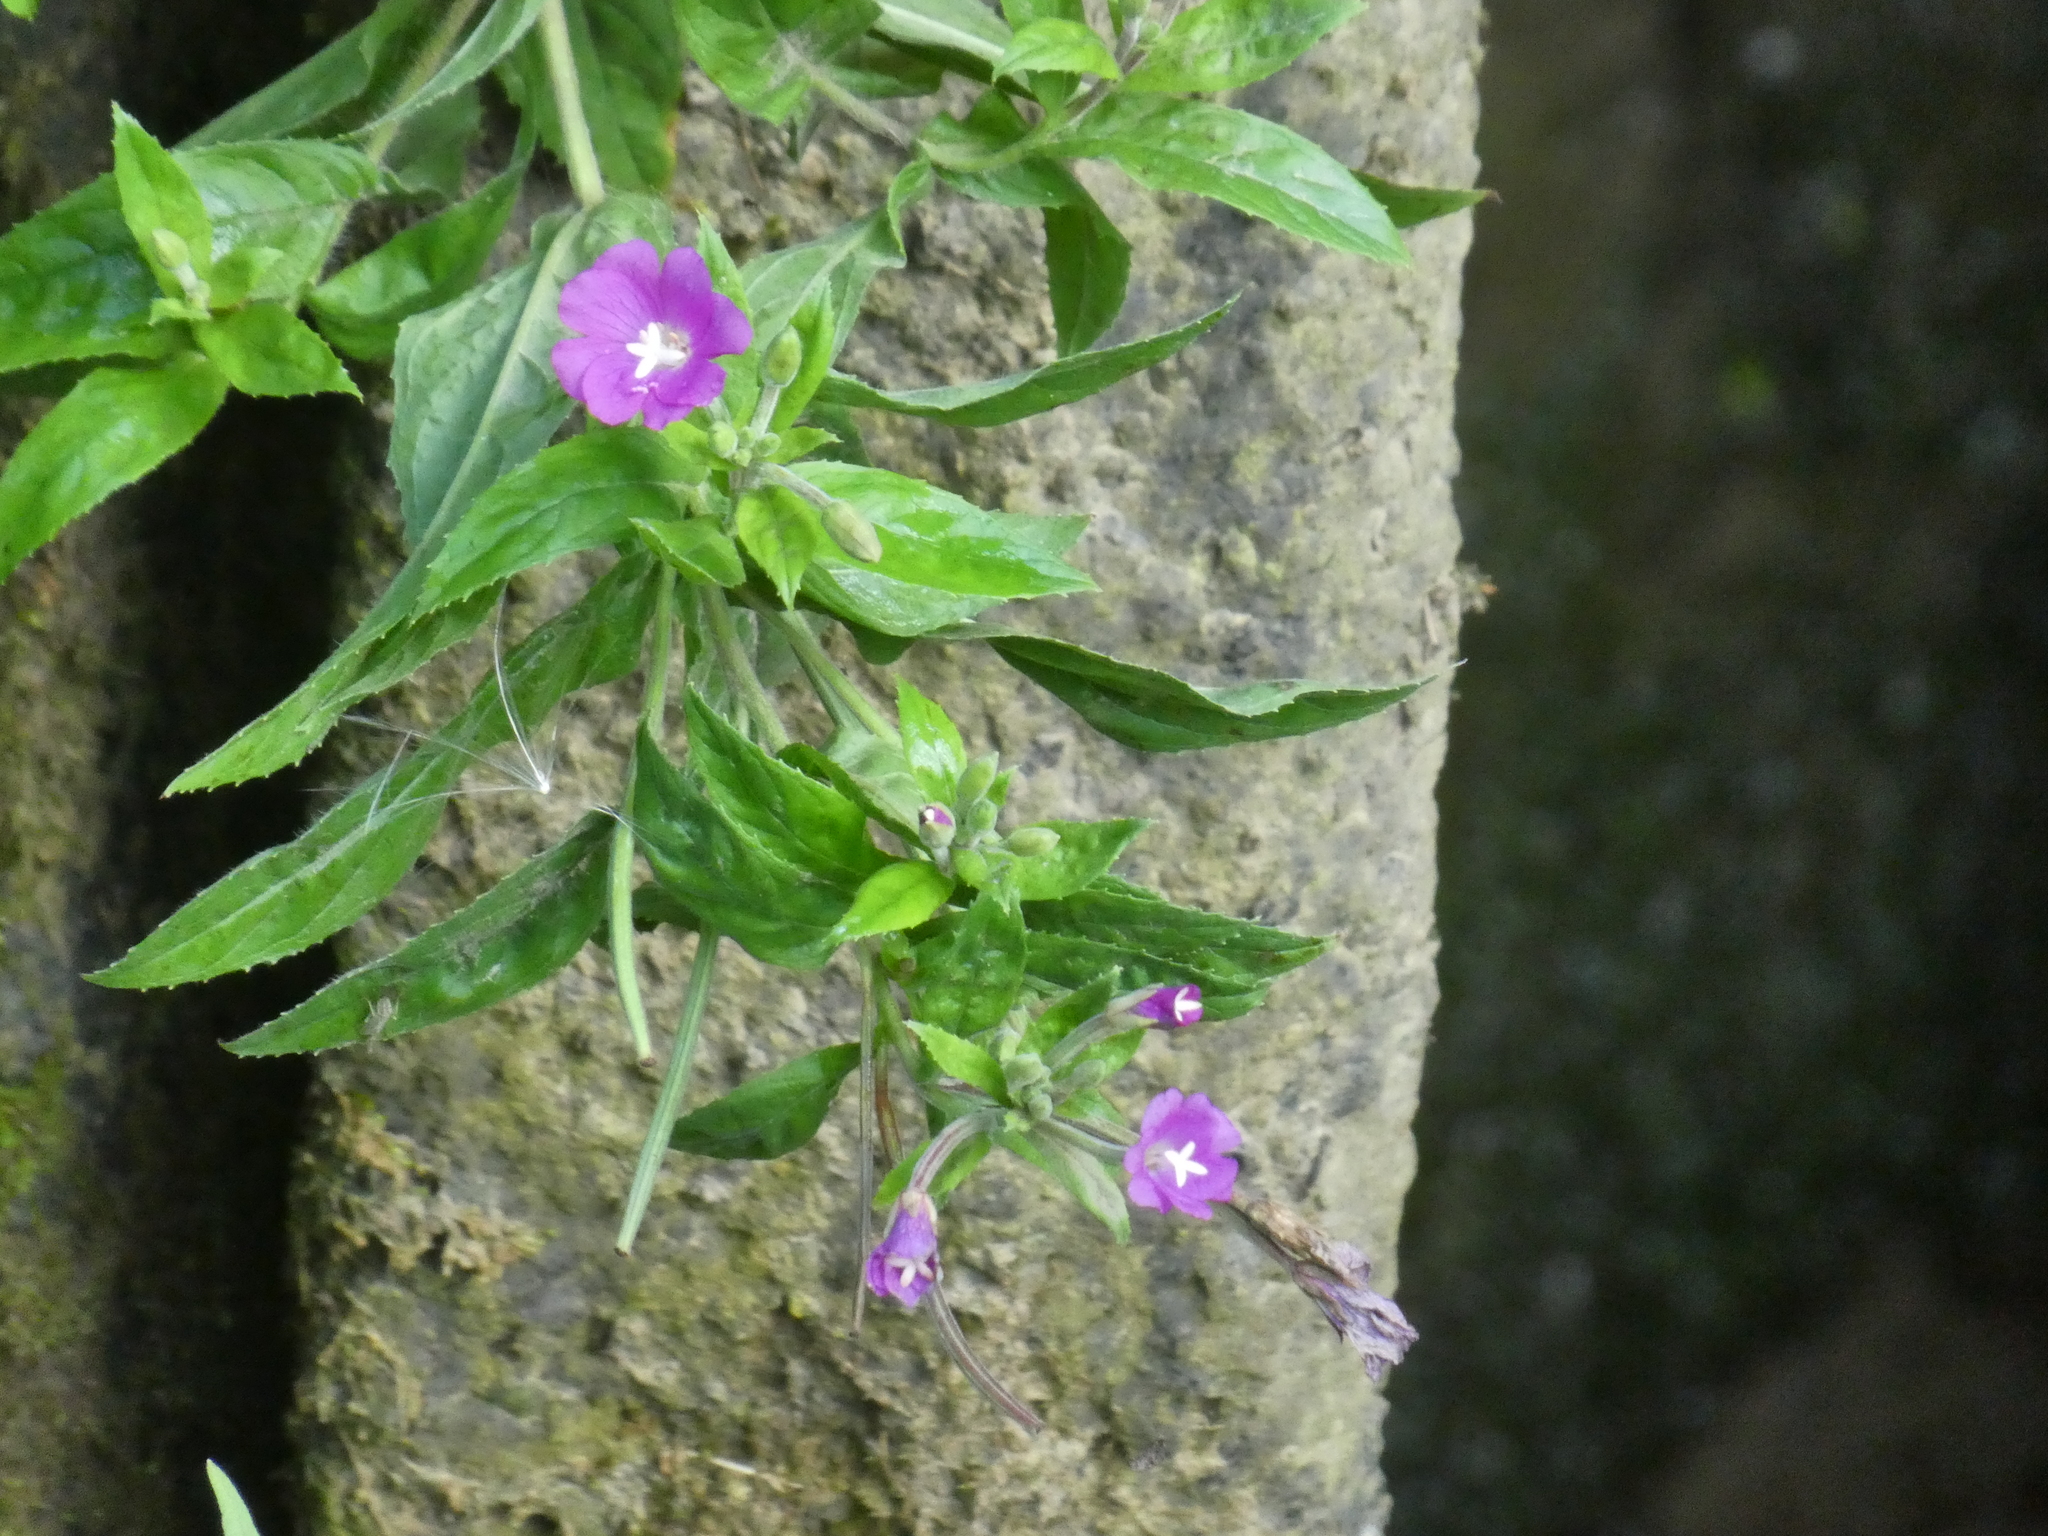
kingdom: Plantae
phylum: Tracheophyta
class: Magnoliopsida
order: Myrtales
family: Onagraceae
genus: Epilobium
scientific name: Epilobium hirsutum
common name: Great willowherb
